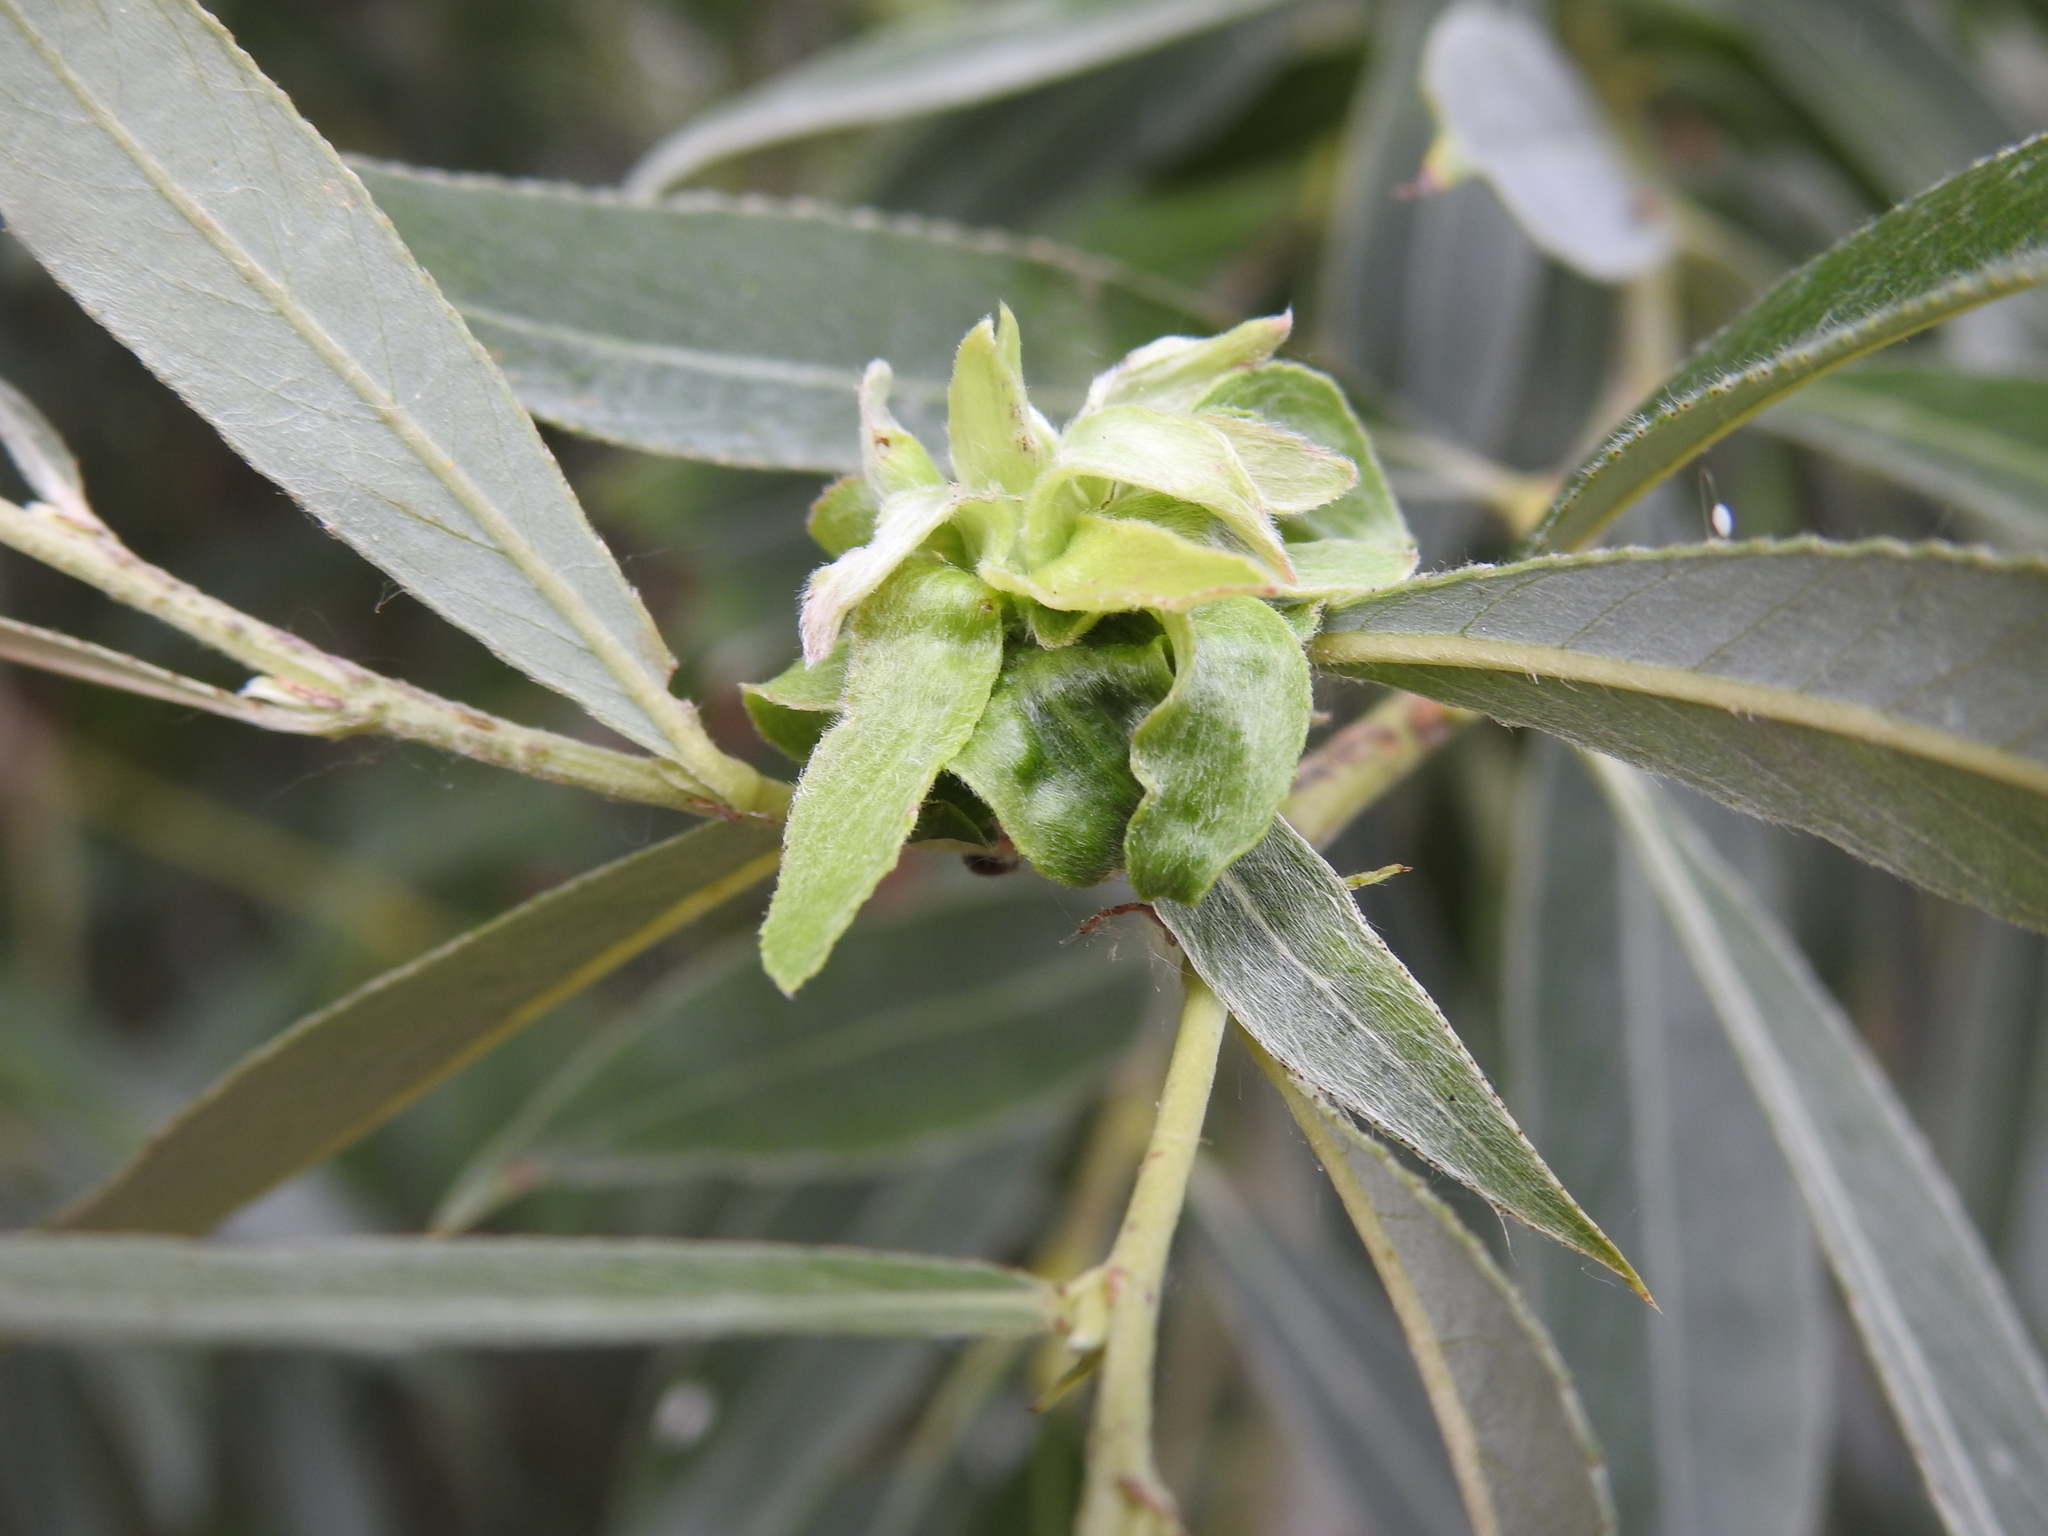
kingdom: Animalia
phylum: Arthropoda
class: Insecta
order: Diptera
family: Cecidomyiidae
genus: Rabdophaga
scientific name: Rabdophaga rosaria
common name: Willow rose gall midge
